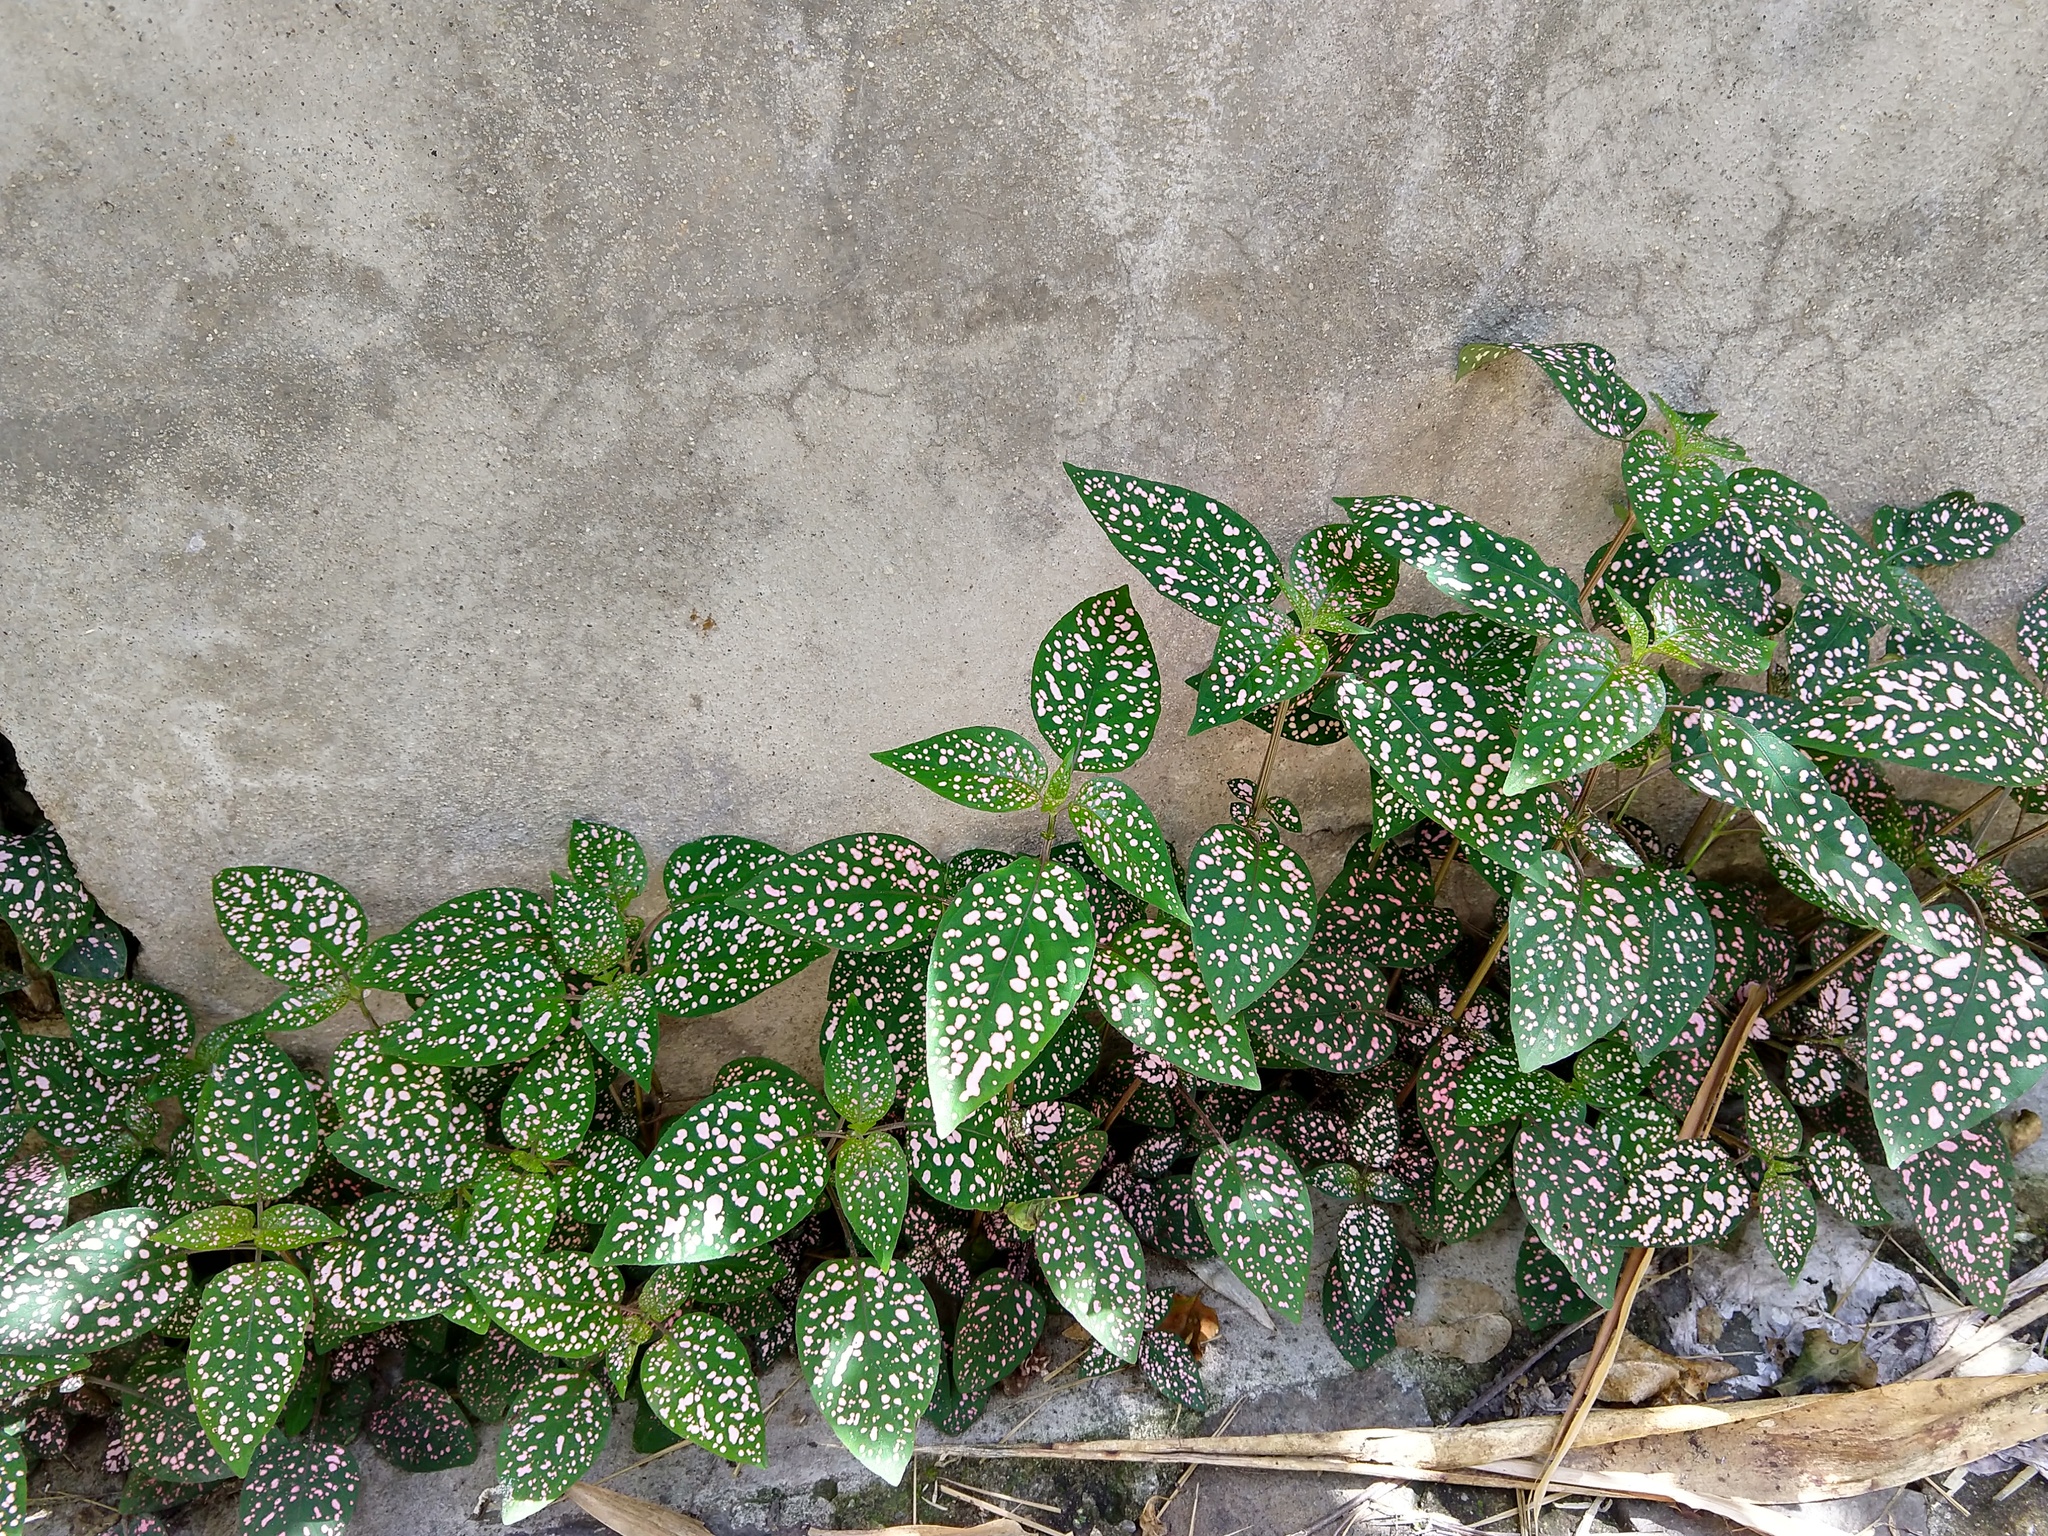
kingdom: Plantae
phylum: Tracheophyta
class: Magnoliopsida
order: Lamiales
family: Acanthaceae
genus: Hypoestes
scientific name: Hypoestes phyllostachya
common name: Polkadot-plant
